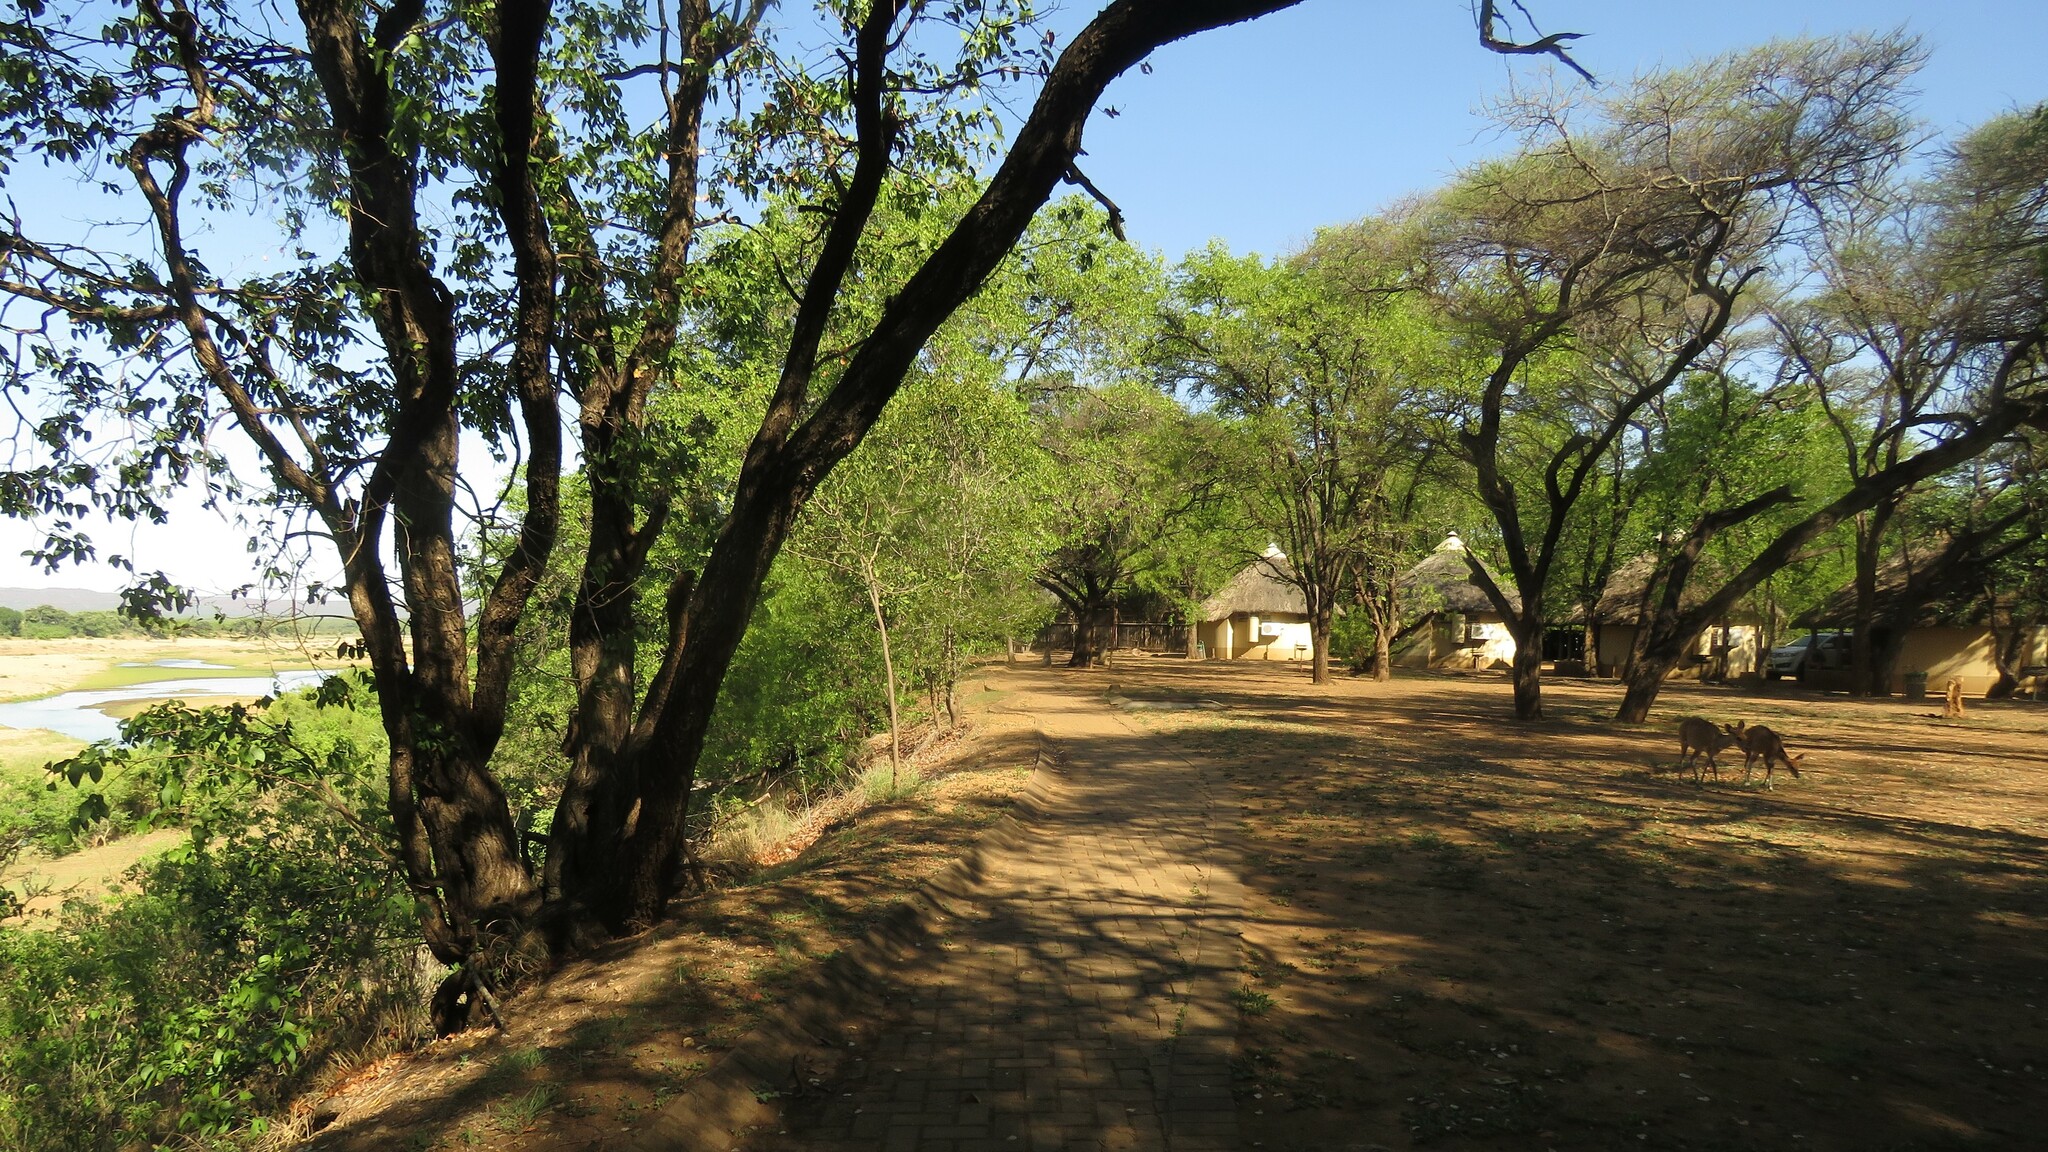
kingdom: Animalia
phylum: Chordata
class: Mammalia
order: Artiodactyla
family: Bovidae
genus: Tragelaphus
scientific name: Tragelaphus scriptus
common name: Bushbuck
